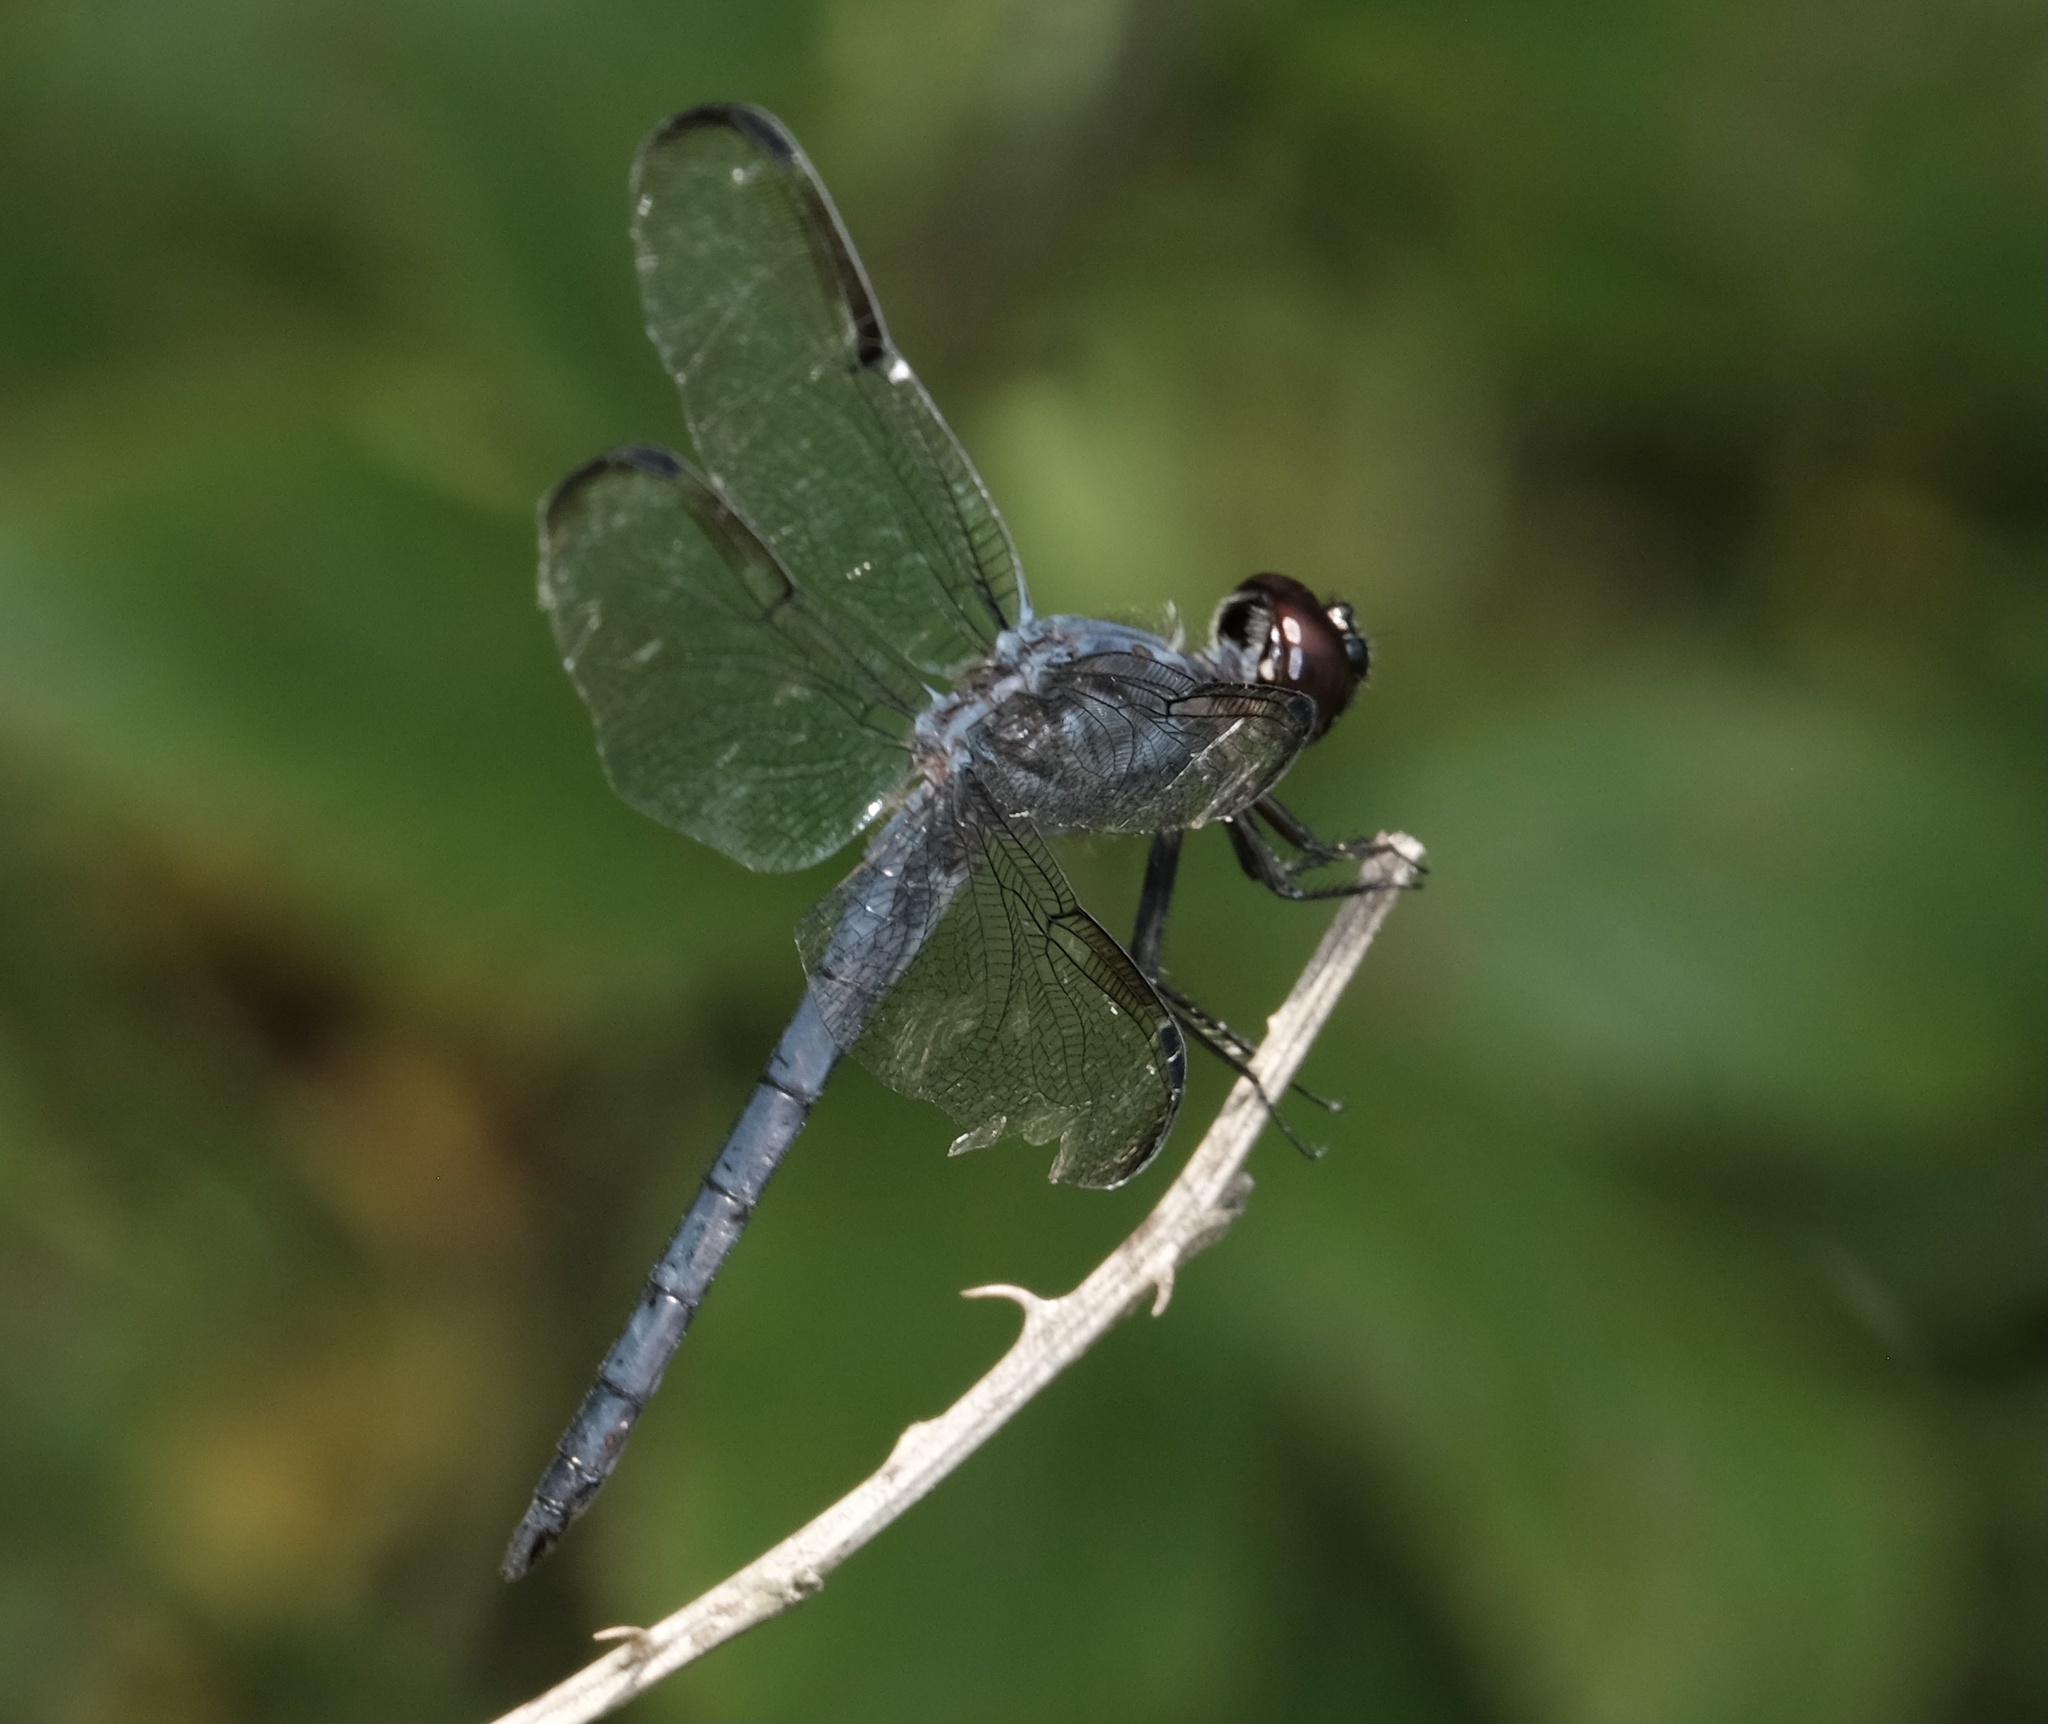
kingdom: Animalia
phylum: Arthropoda
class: Insecta
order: Odonata
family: Libellulidae
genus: Libellula
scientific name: Libellula incesta
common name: Slaty skimmer
